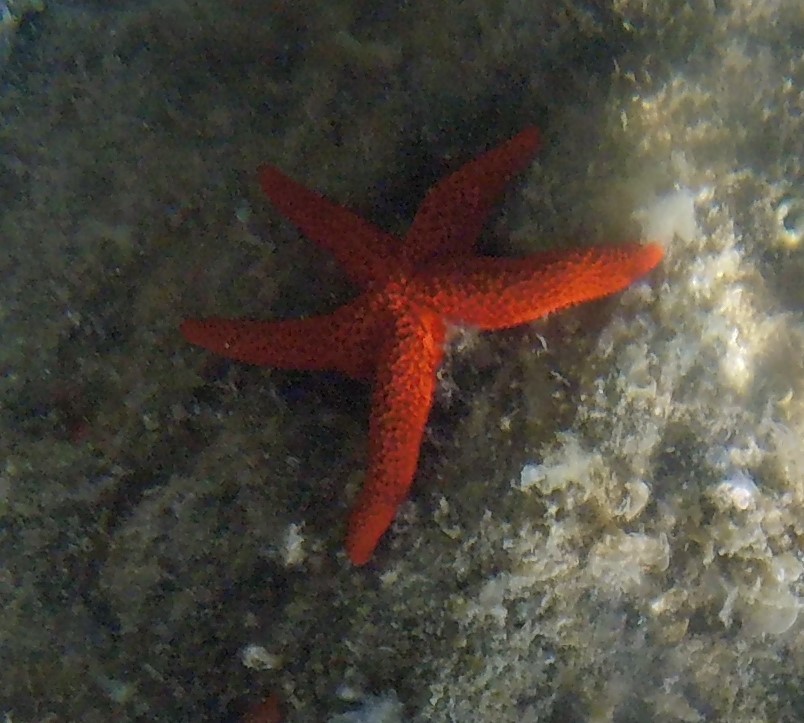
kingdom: Animalia
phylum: Echinodermata
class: Asteroidea
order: Spinulosida
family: Echinasteridae
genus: Echinaster
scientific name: Echinaster sepositus
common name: Red starfish
